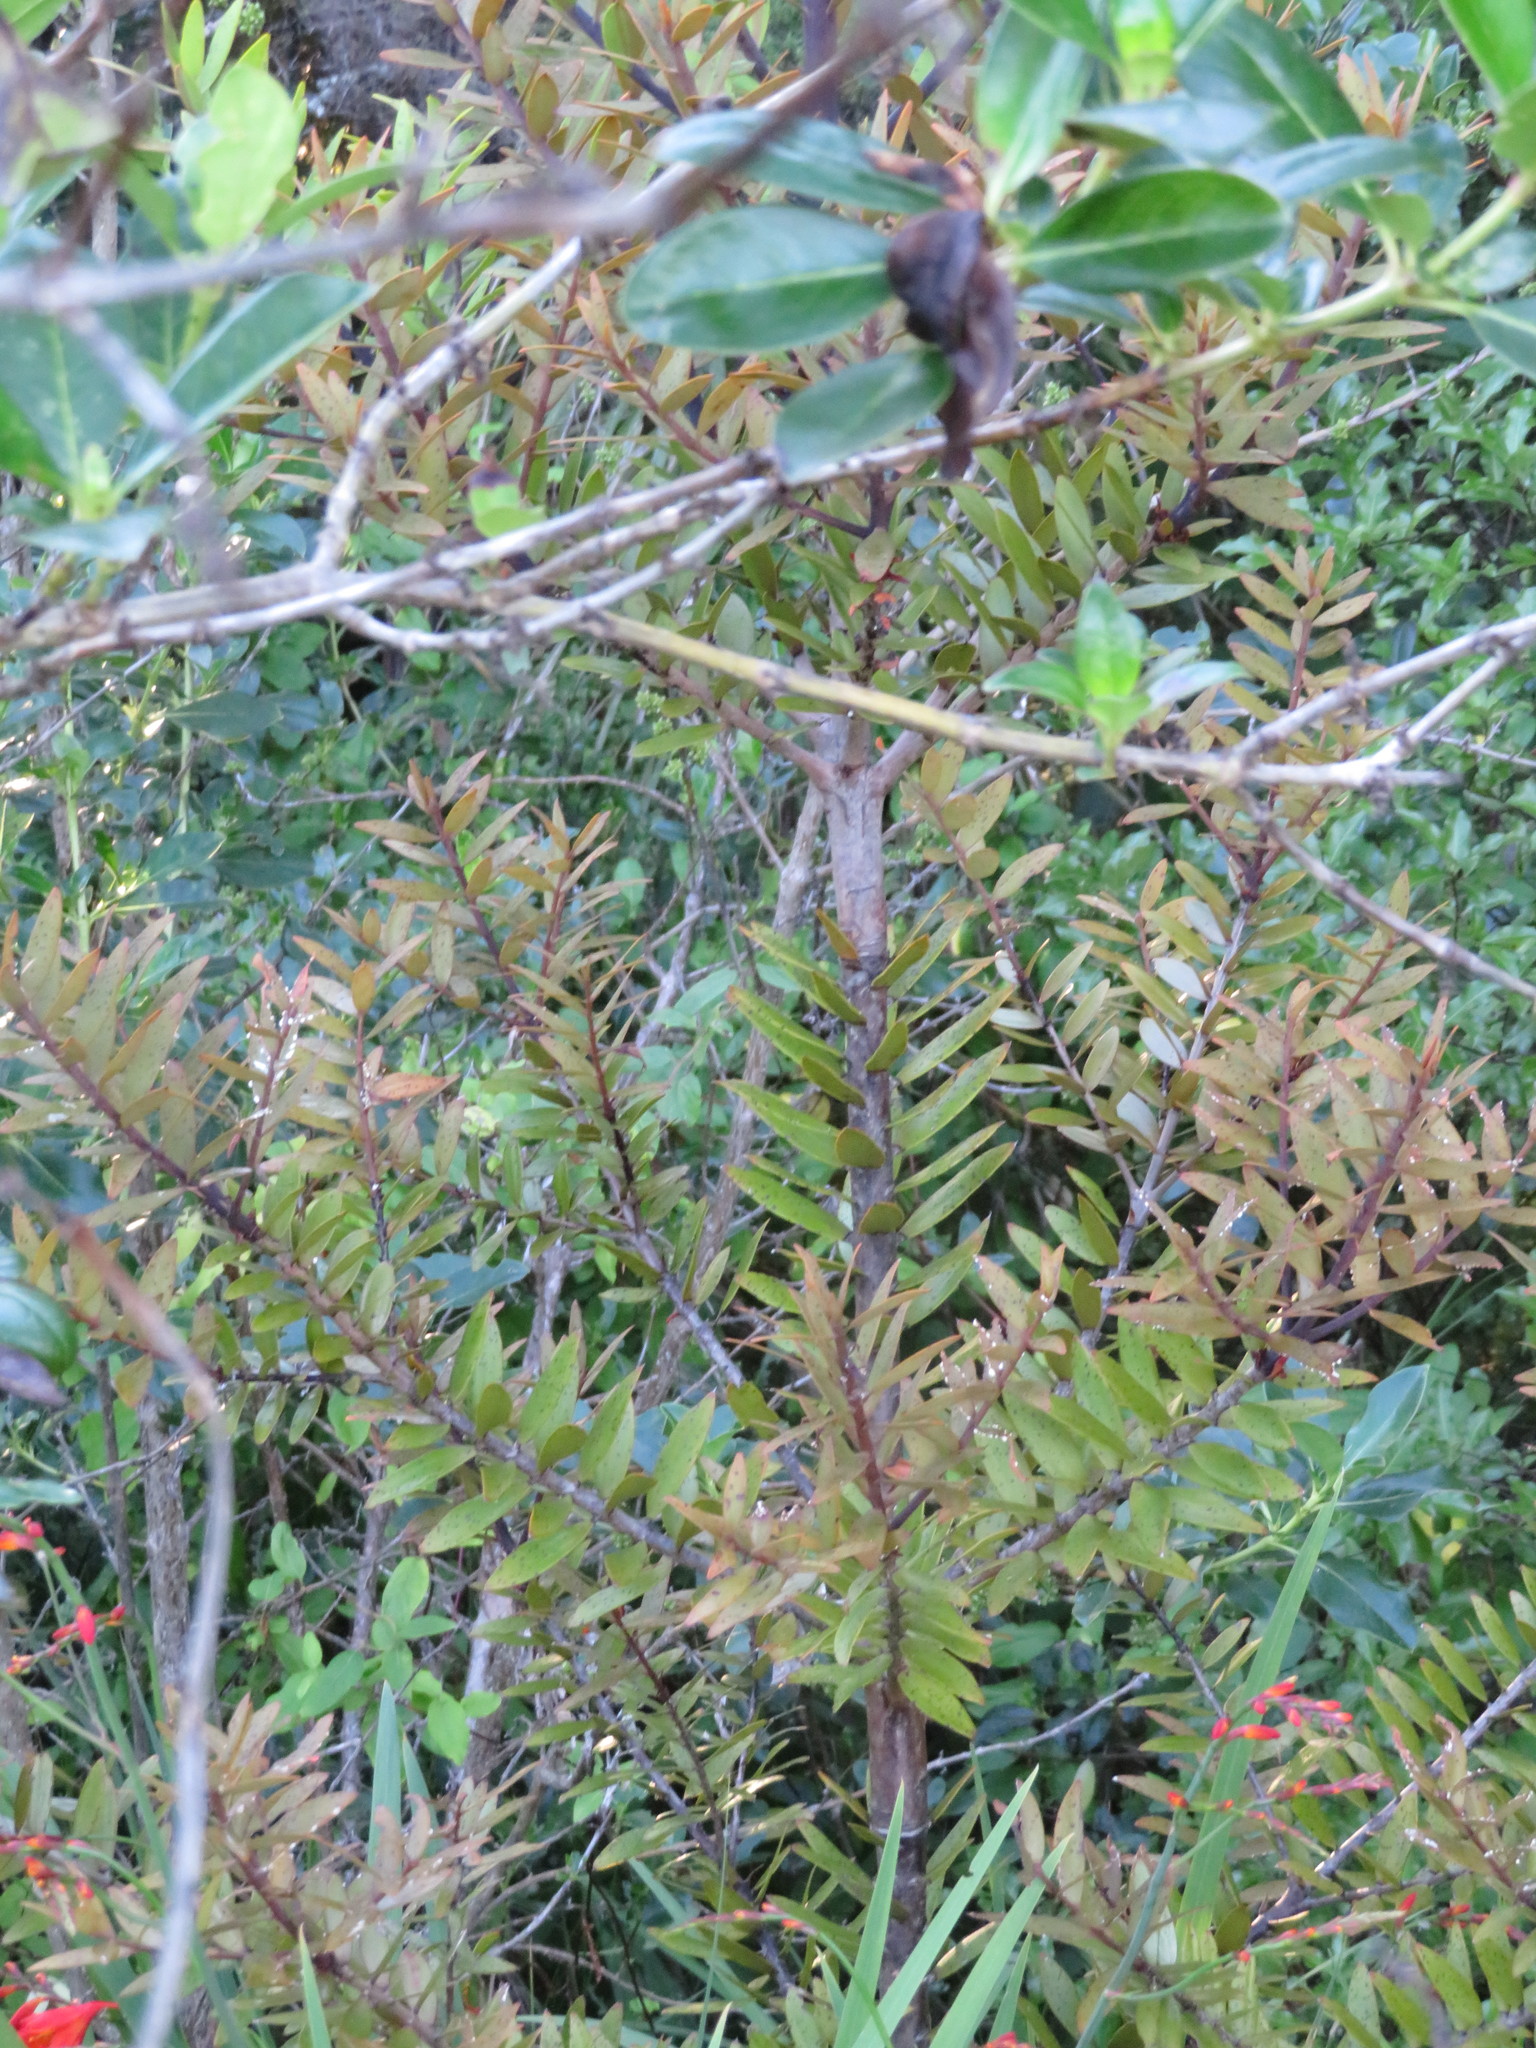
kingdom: Plantae
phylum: Tracheophyta
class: Pinopsida
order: Pinales
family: Araucariaceae
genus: Agathis
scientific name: Agathis australis
